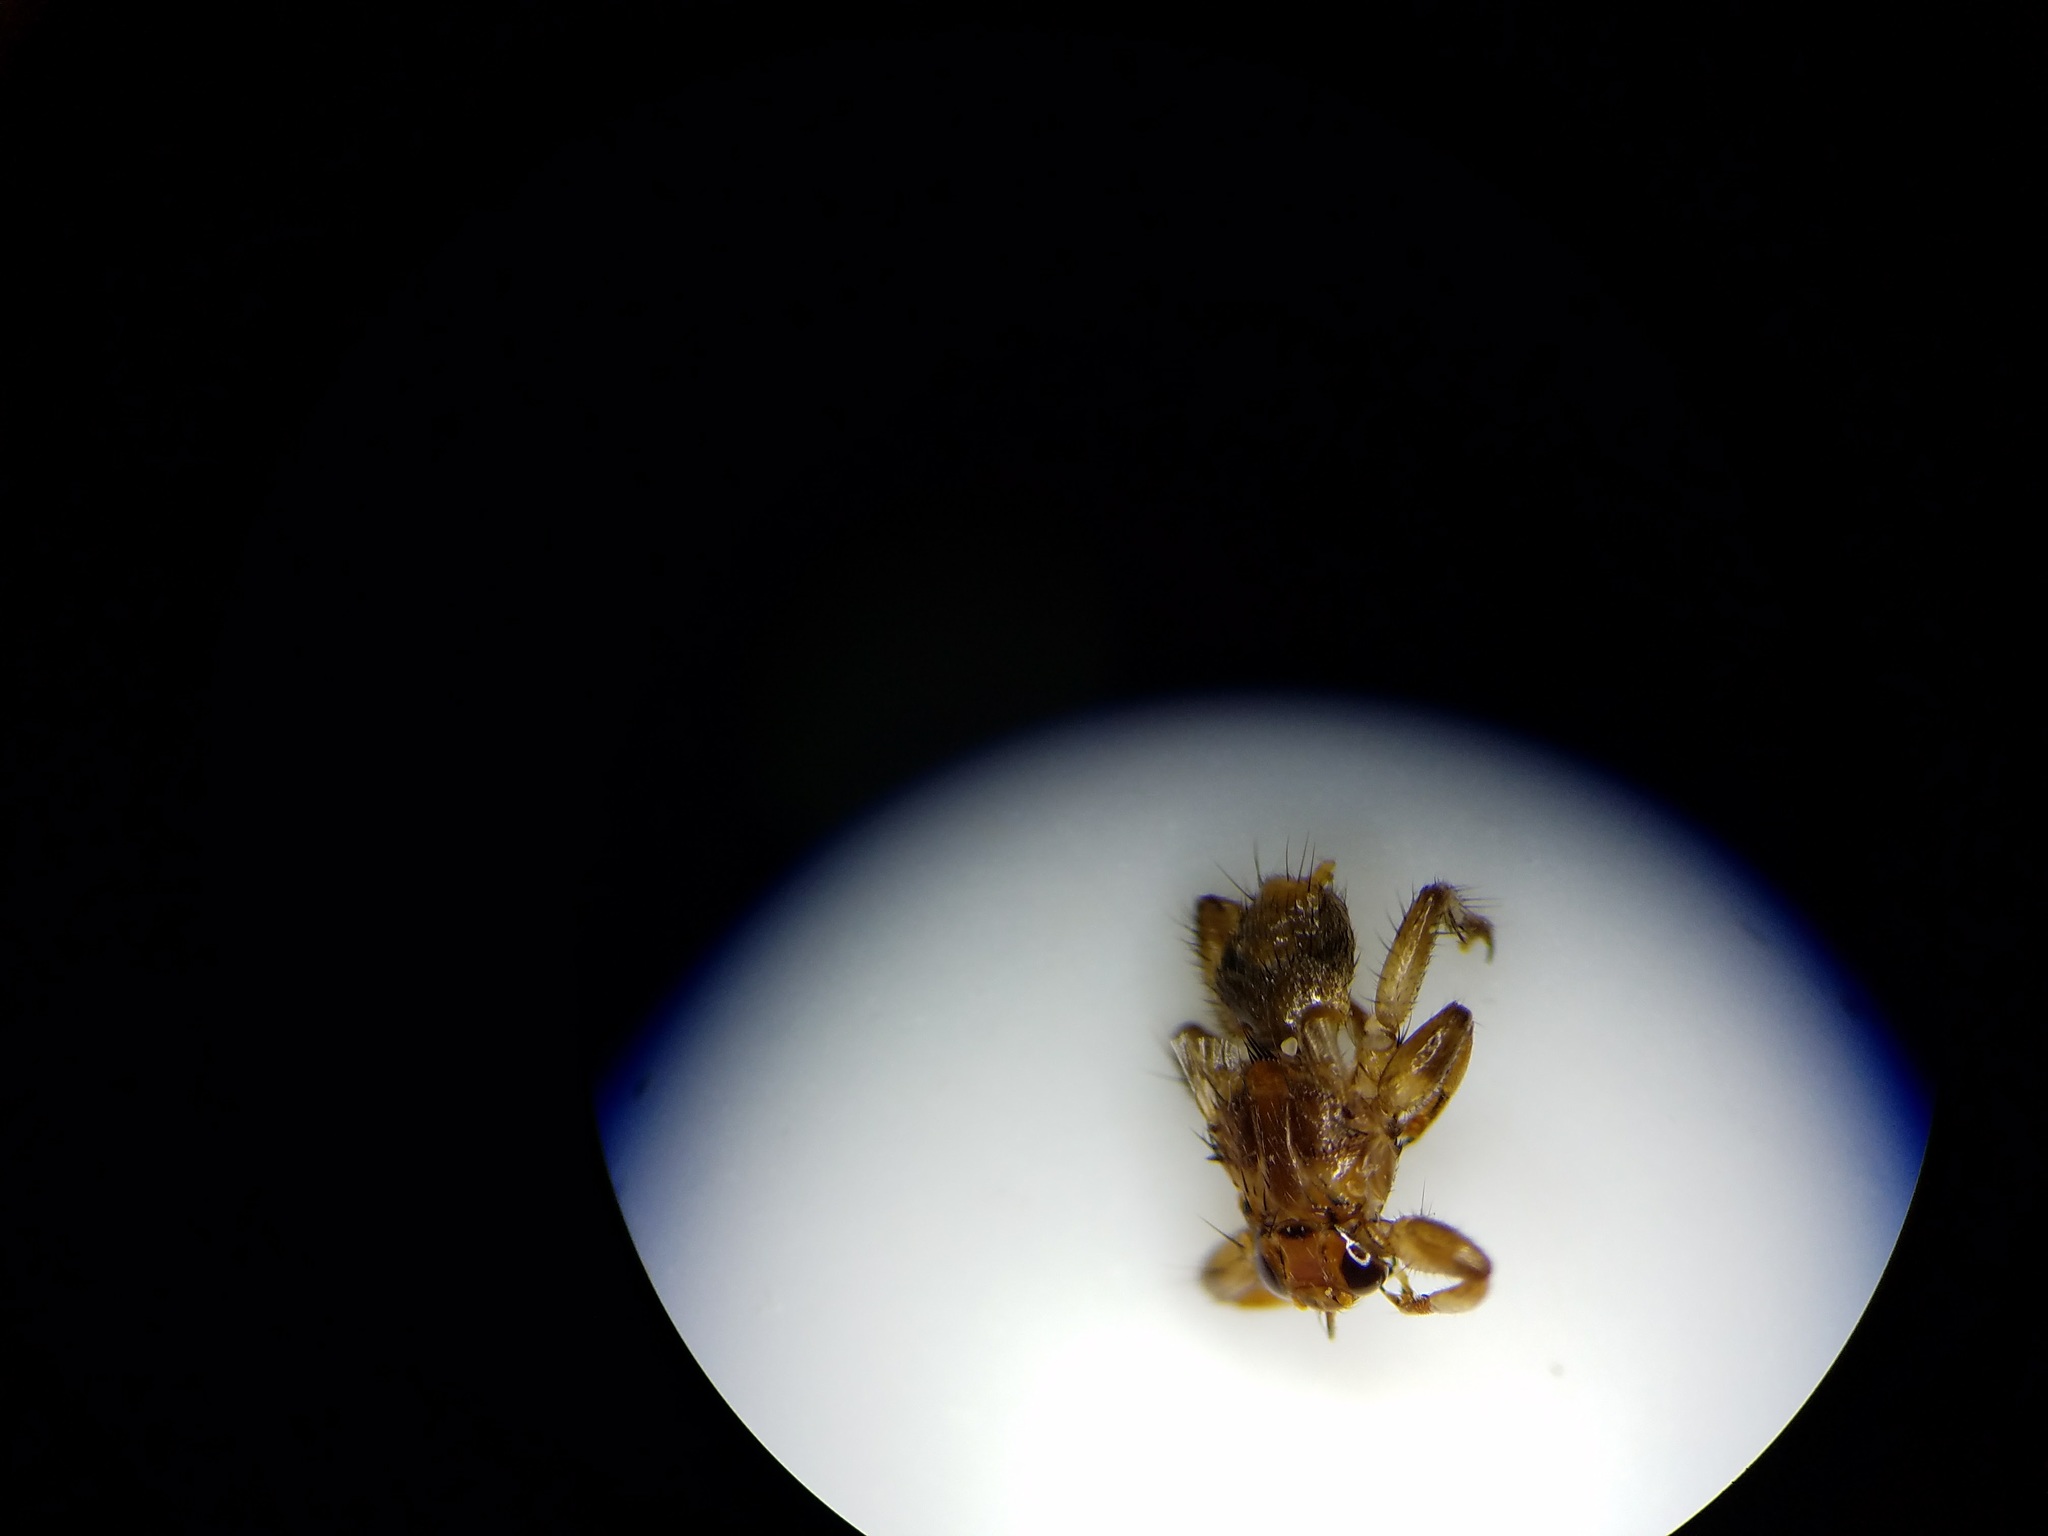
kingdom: Animalia
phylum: Arthropoda
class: Insecta
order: Diptera
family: Hippoboscidae
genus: Lipoptena
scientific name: Lipoptena cervi
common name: Deer ked
